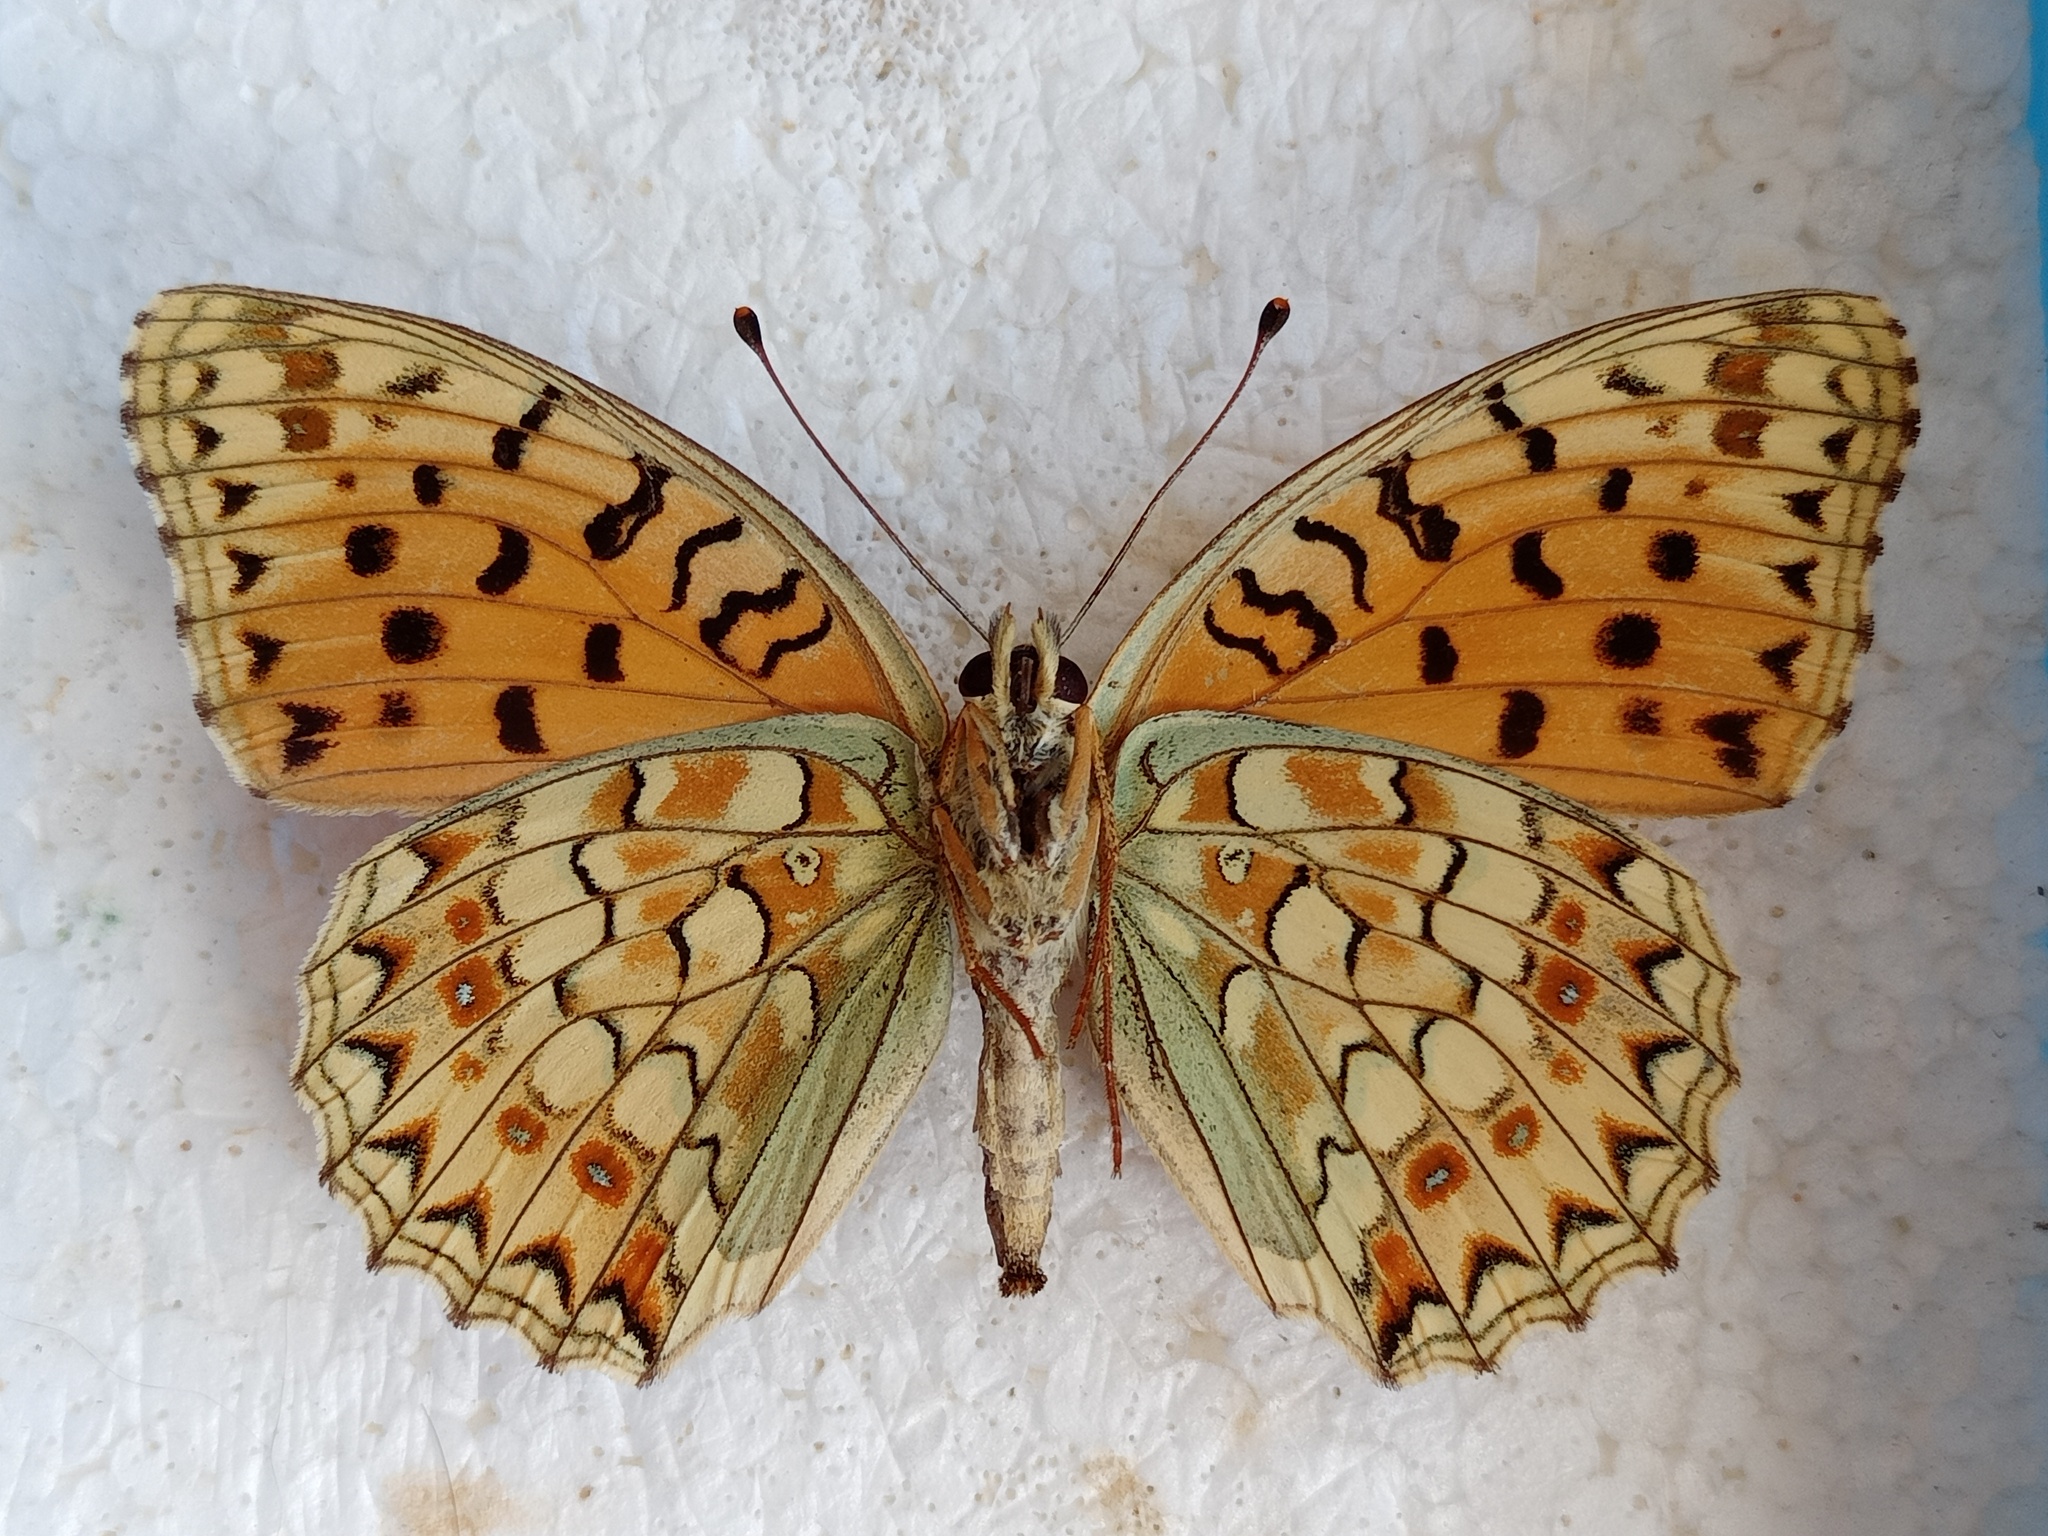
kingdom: Animalia
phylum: Arthropoda
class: Insecta
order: Lepidoptera
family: Nymphalidae
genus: Fabriciana
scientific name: Fabriciana niobe
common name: Niobe fritillary
